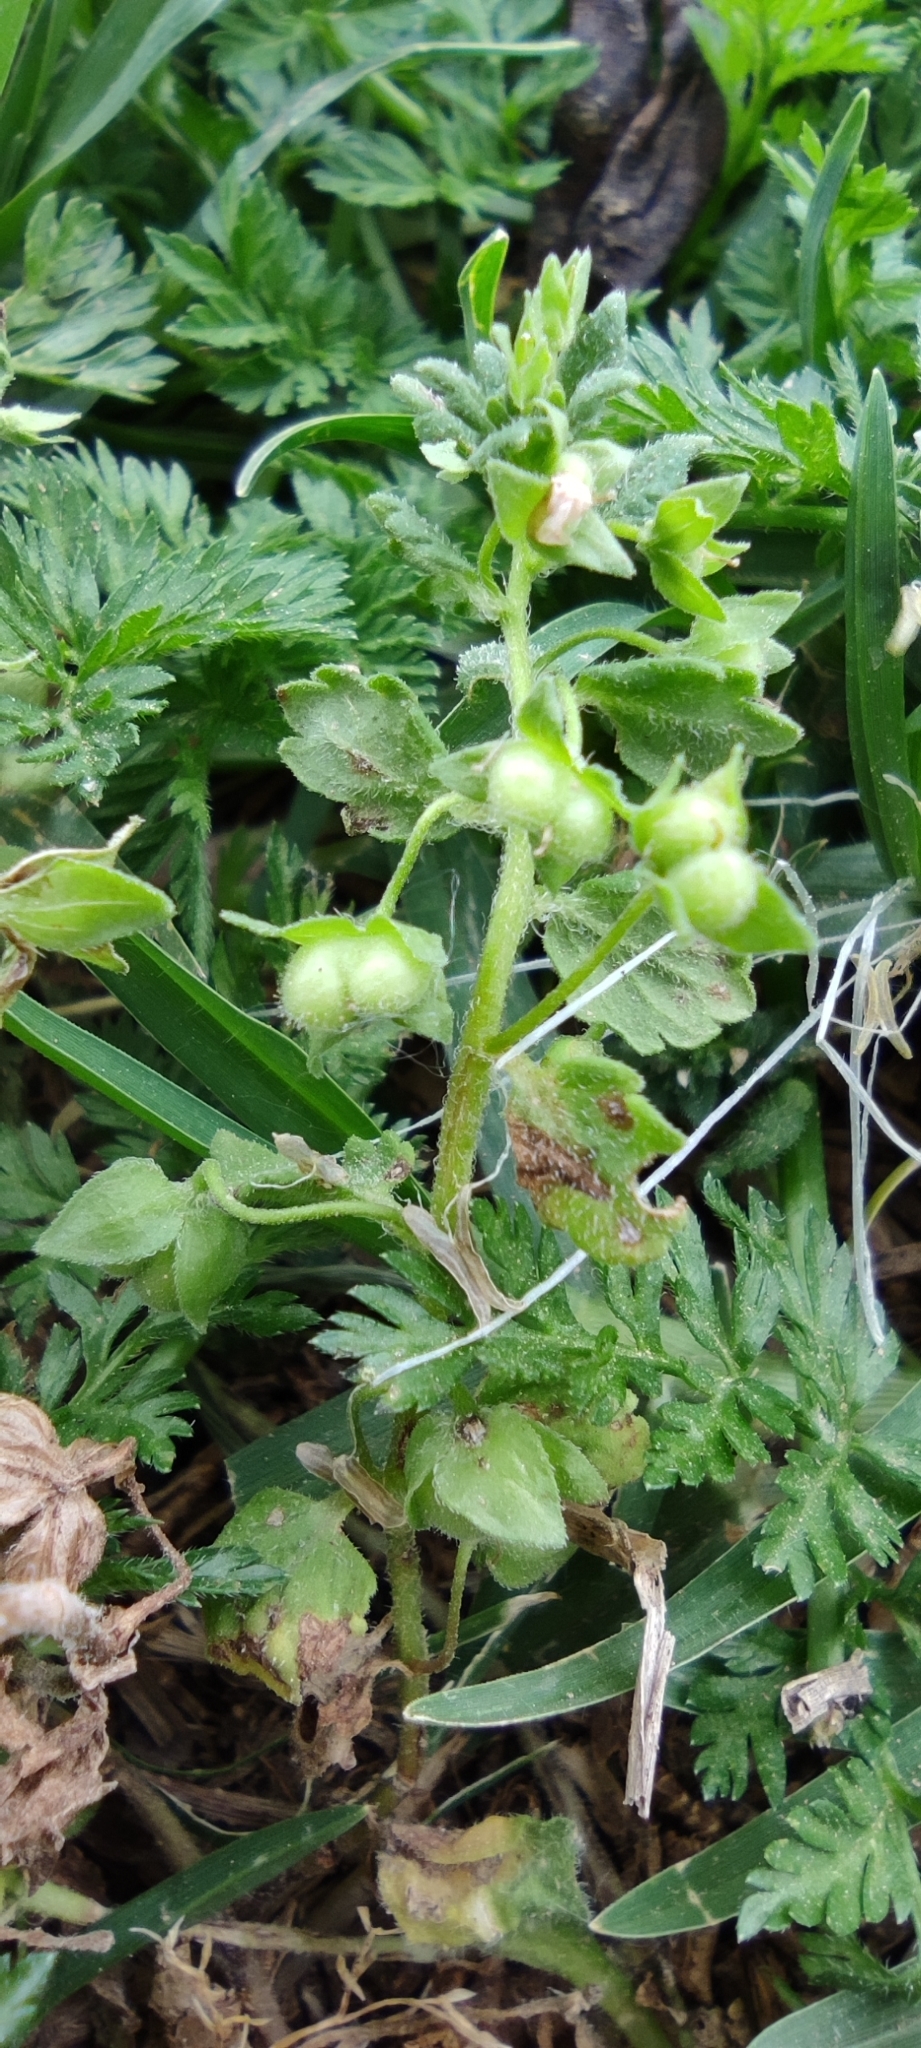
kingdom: Plantae
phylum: Tracheophyta
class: Magnoliopsida
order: Lamiales
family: Plantaginaceae
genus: Veronica
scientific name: Veronica polita
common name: Grey field-speedwell
